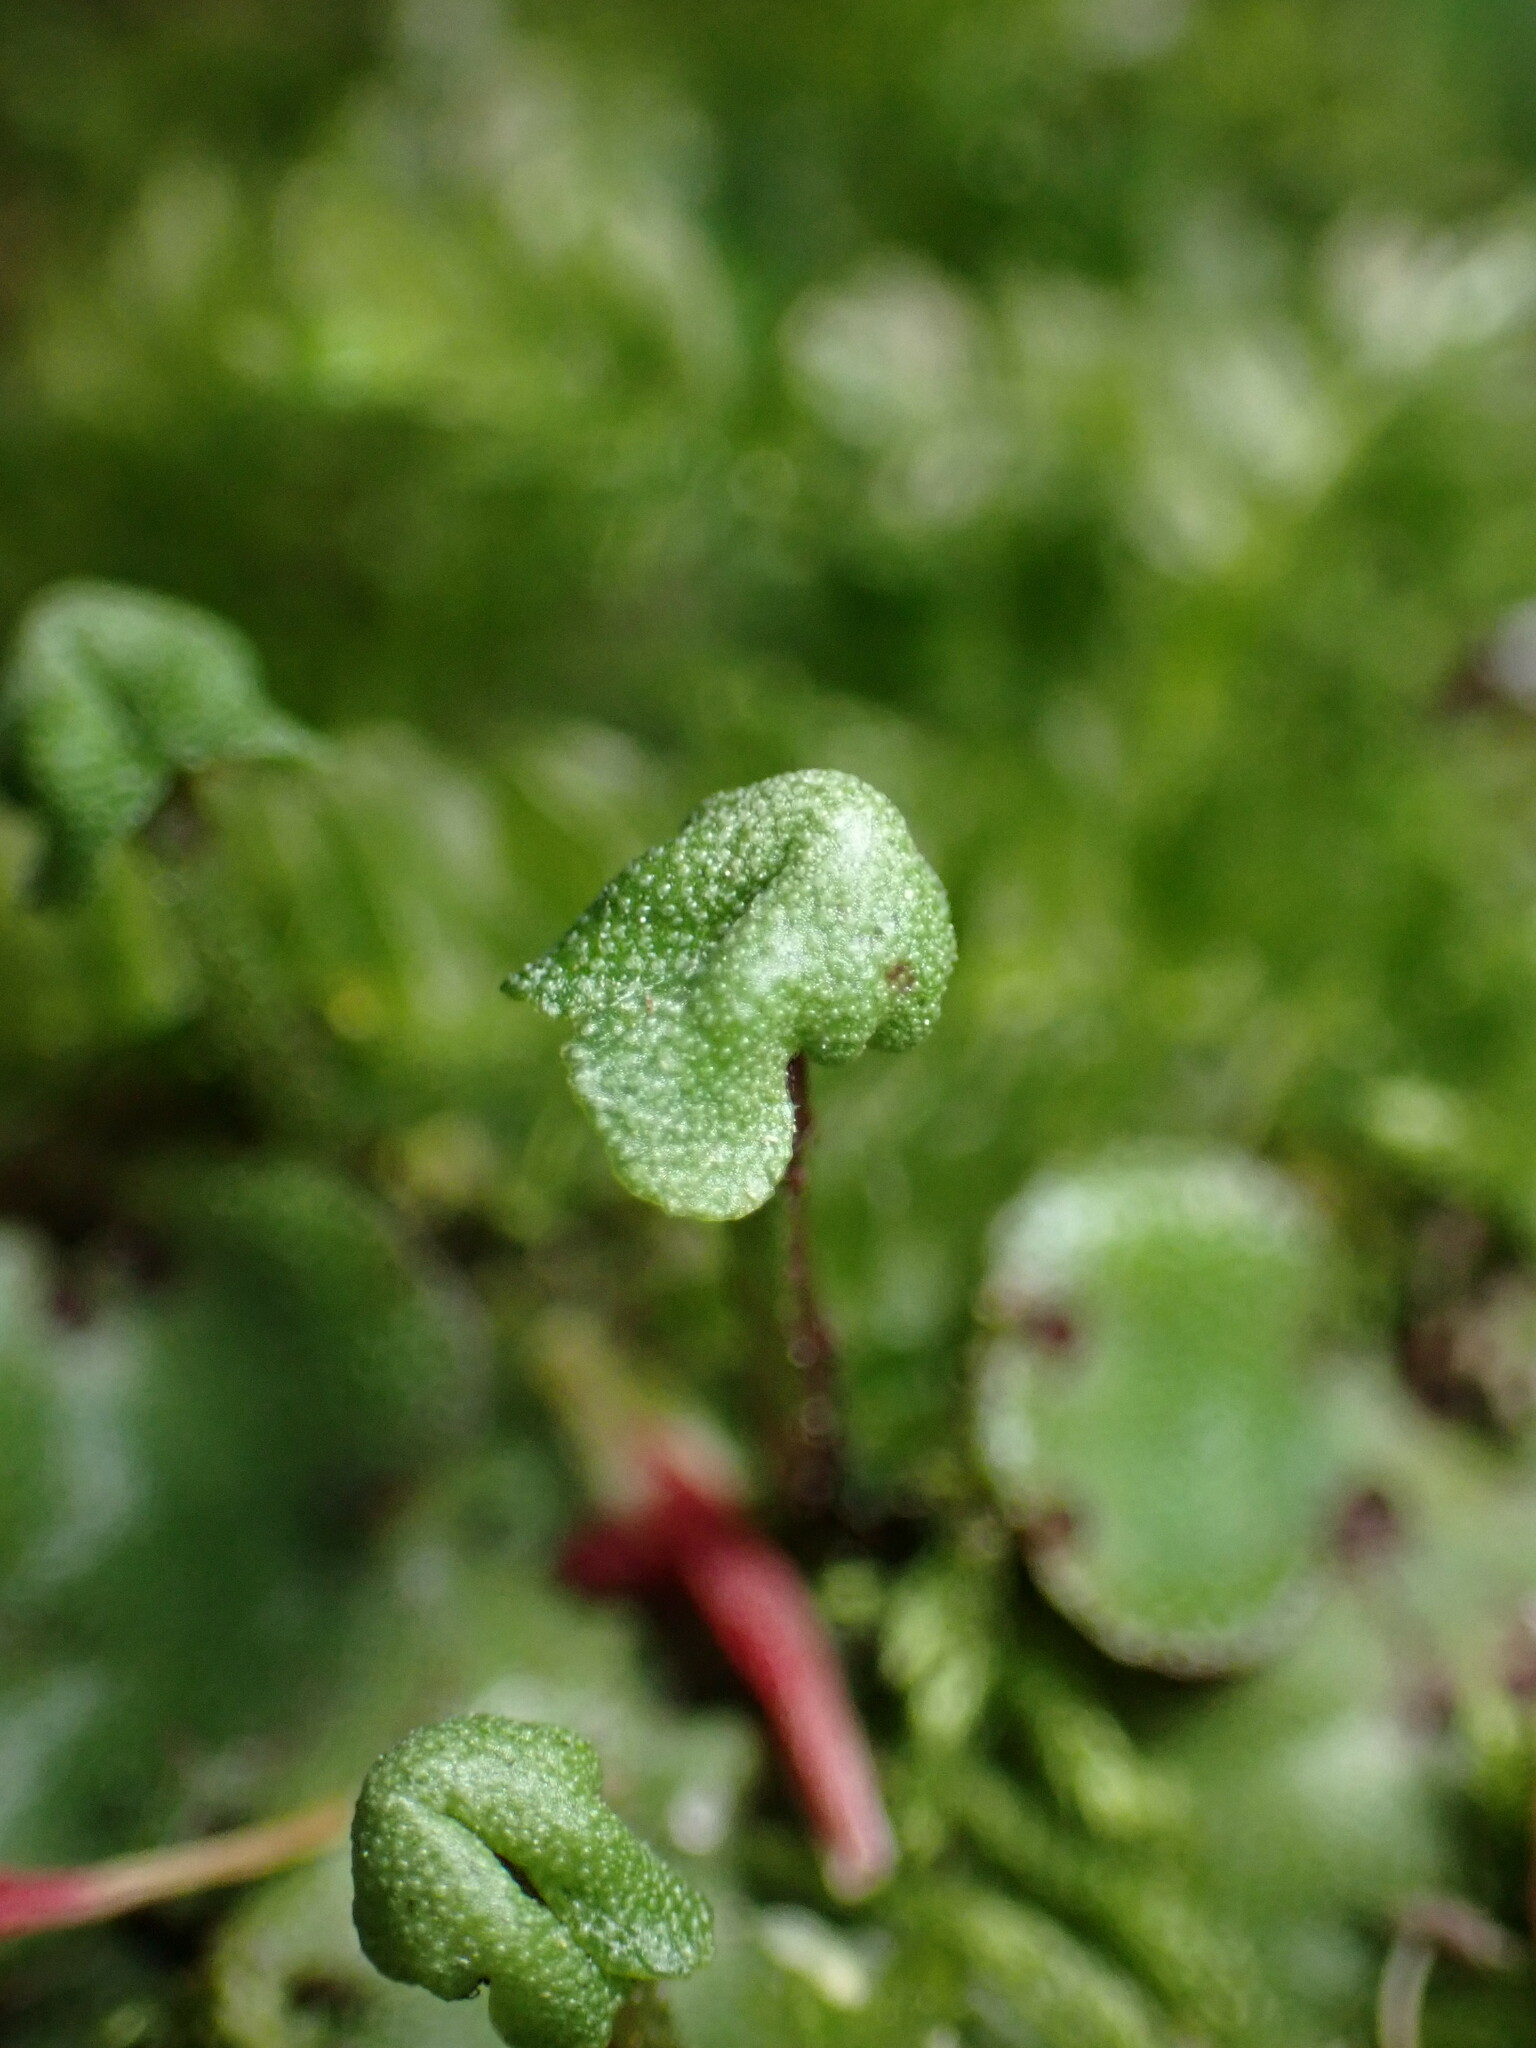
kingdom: Plantae
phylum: Marchantiophyta
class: Marchantiopsida
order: Marchantiales
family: Marchantiaceae
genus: Marchantia
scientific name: Marchantia paleacea
